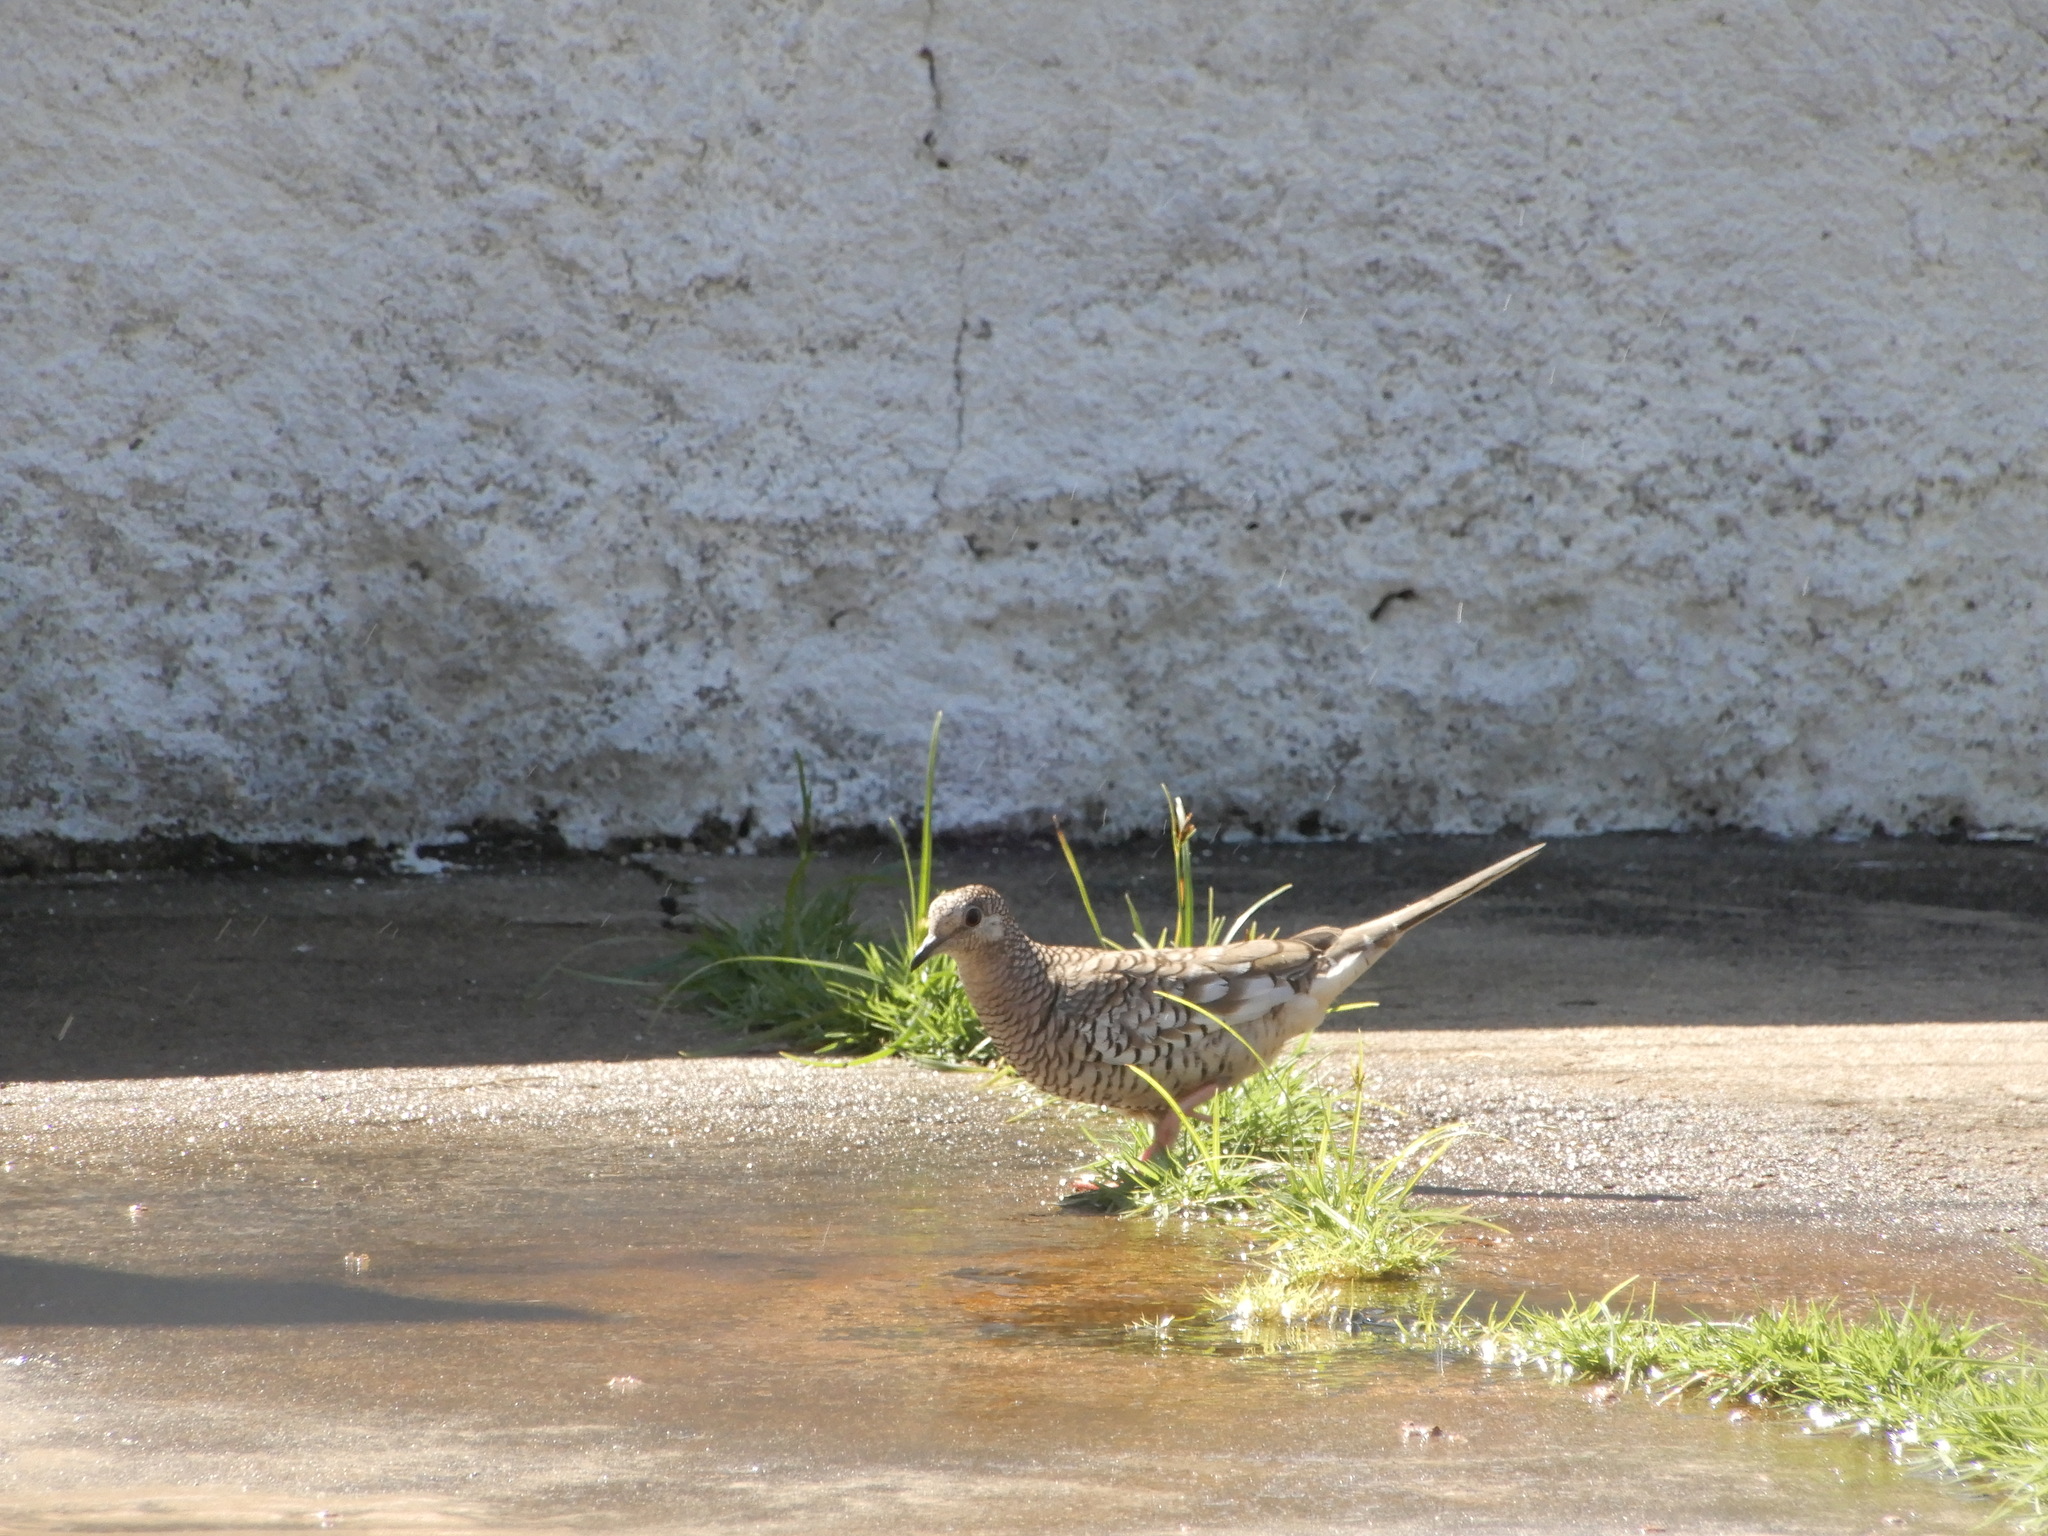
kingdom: Animalia
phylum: Chordata
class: Aves
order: Columbiformes
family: Columbidae
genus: Columbina
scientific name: Columbina squammata
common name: Scaled dove
